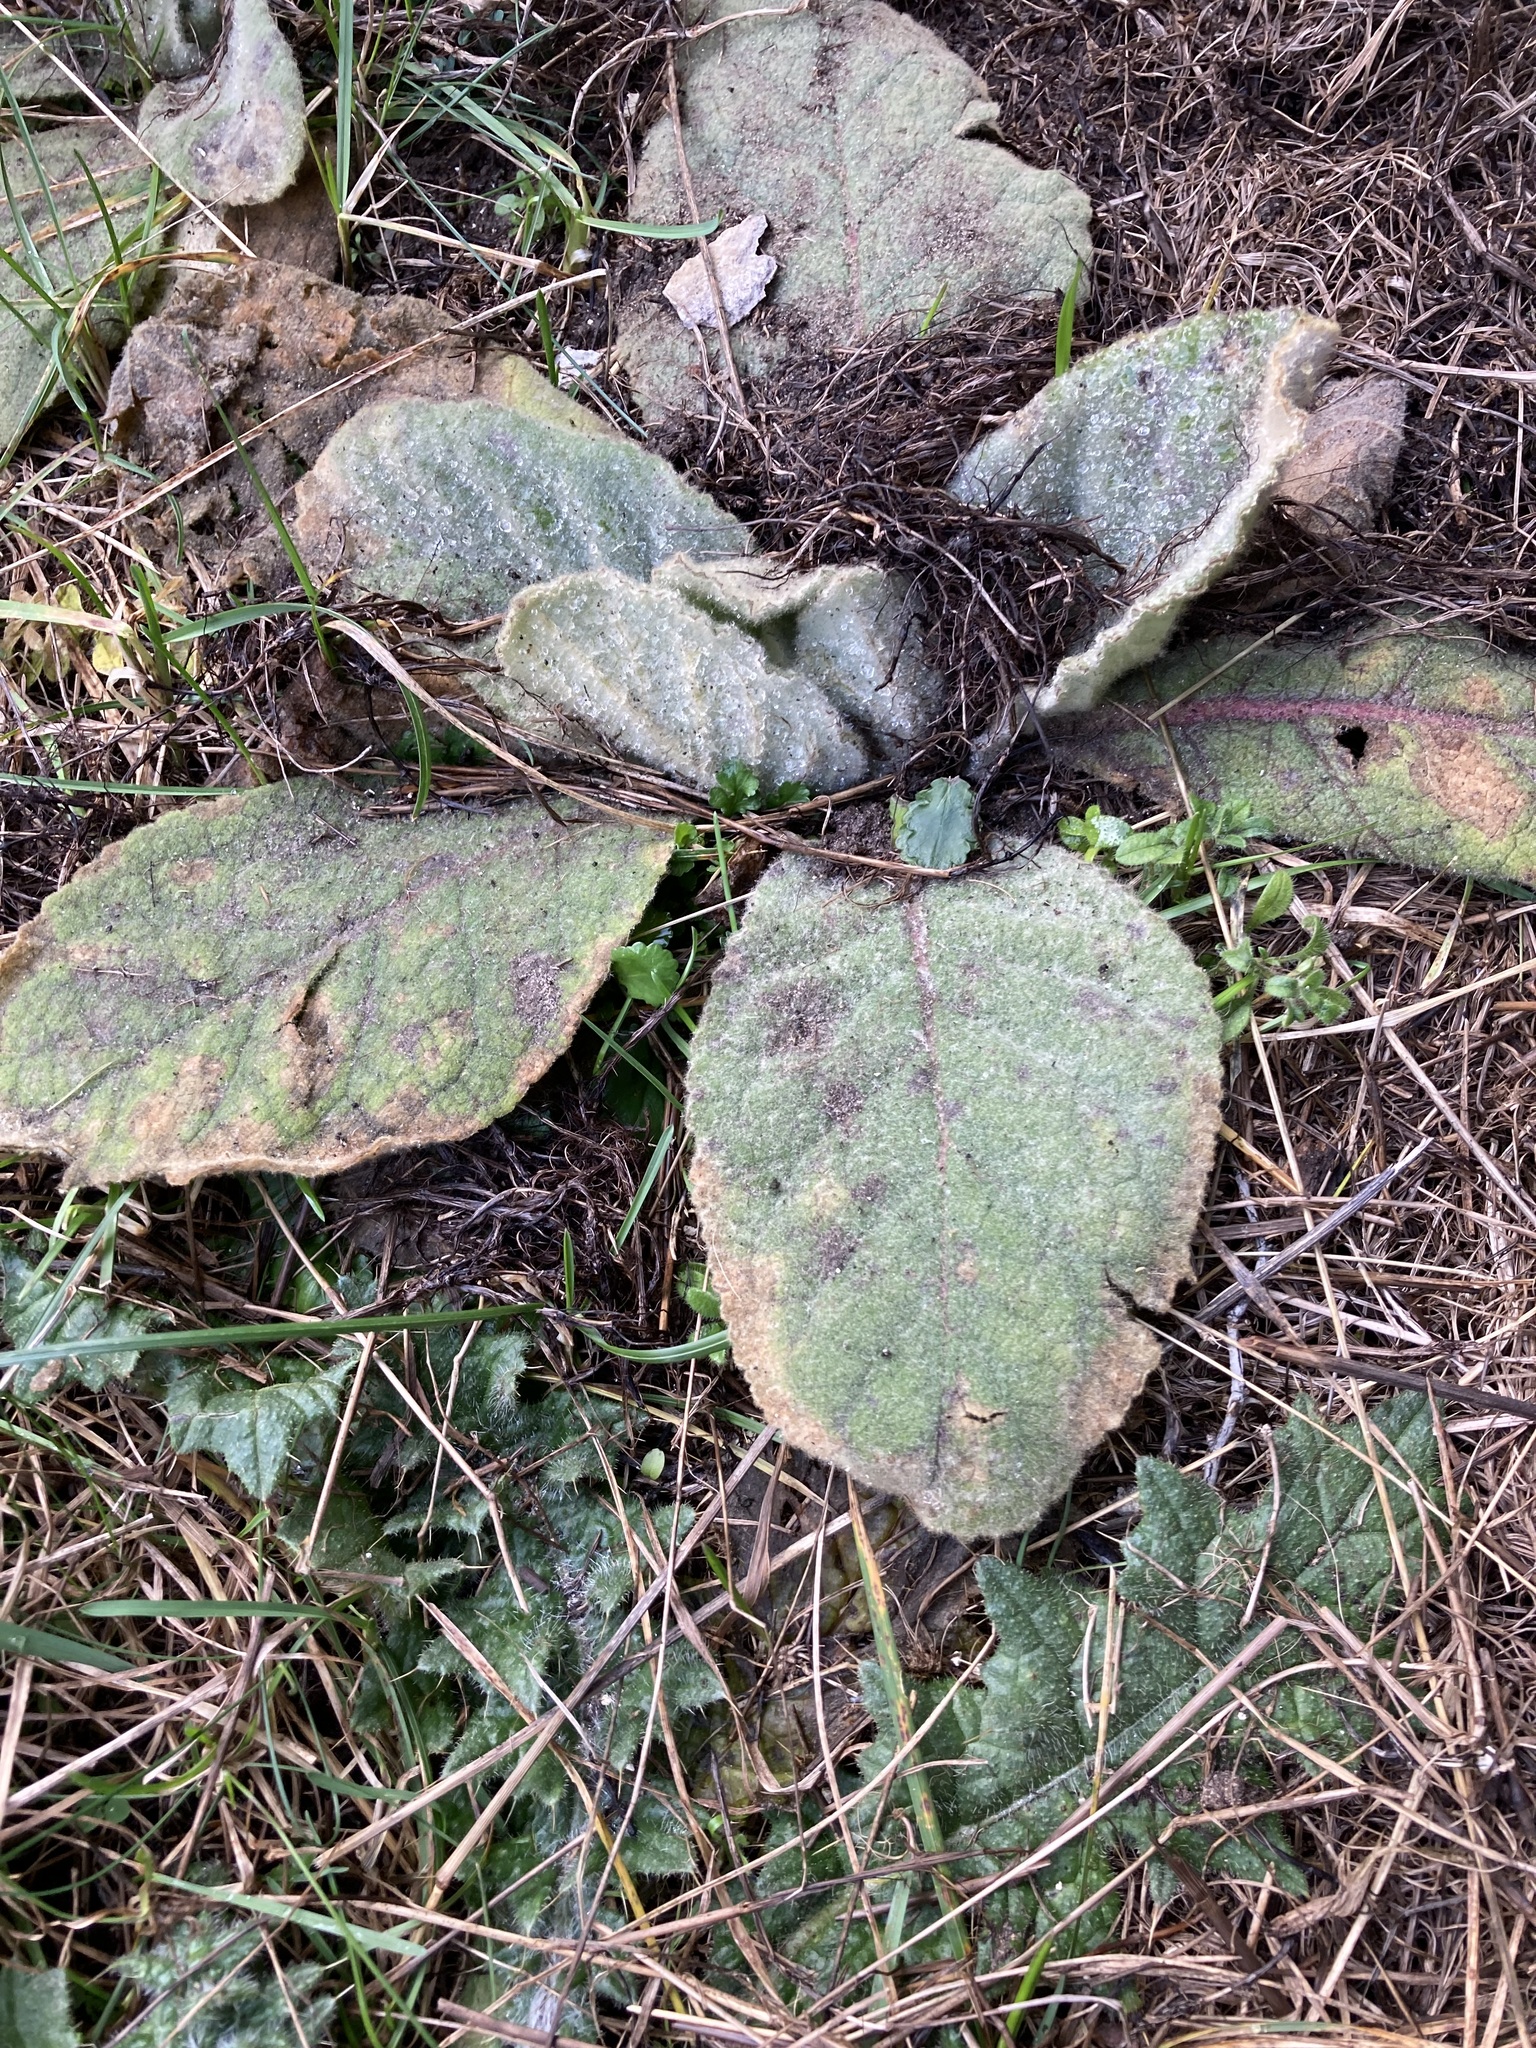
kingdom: Plantae
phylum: Tracheophyta
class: Magnoliopsida
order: Lamiales
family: Scrophulariaceae
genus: Verbascum
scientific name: Verbascum thapsus
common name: Common mullein
